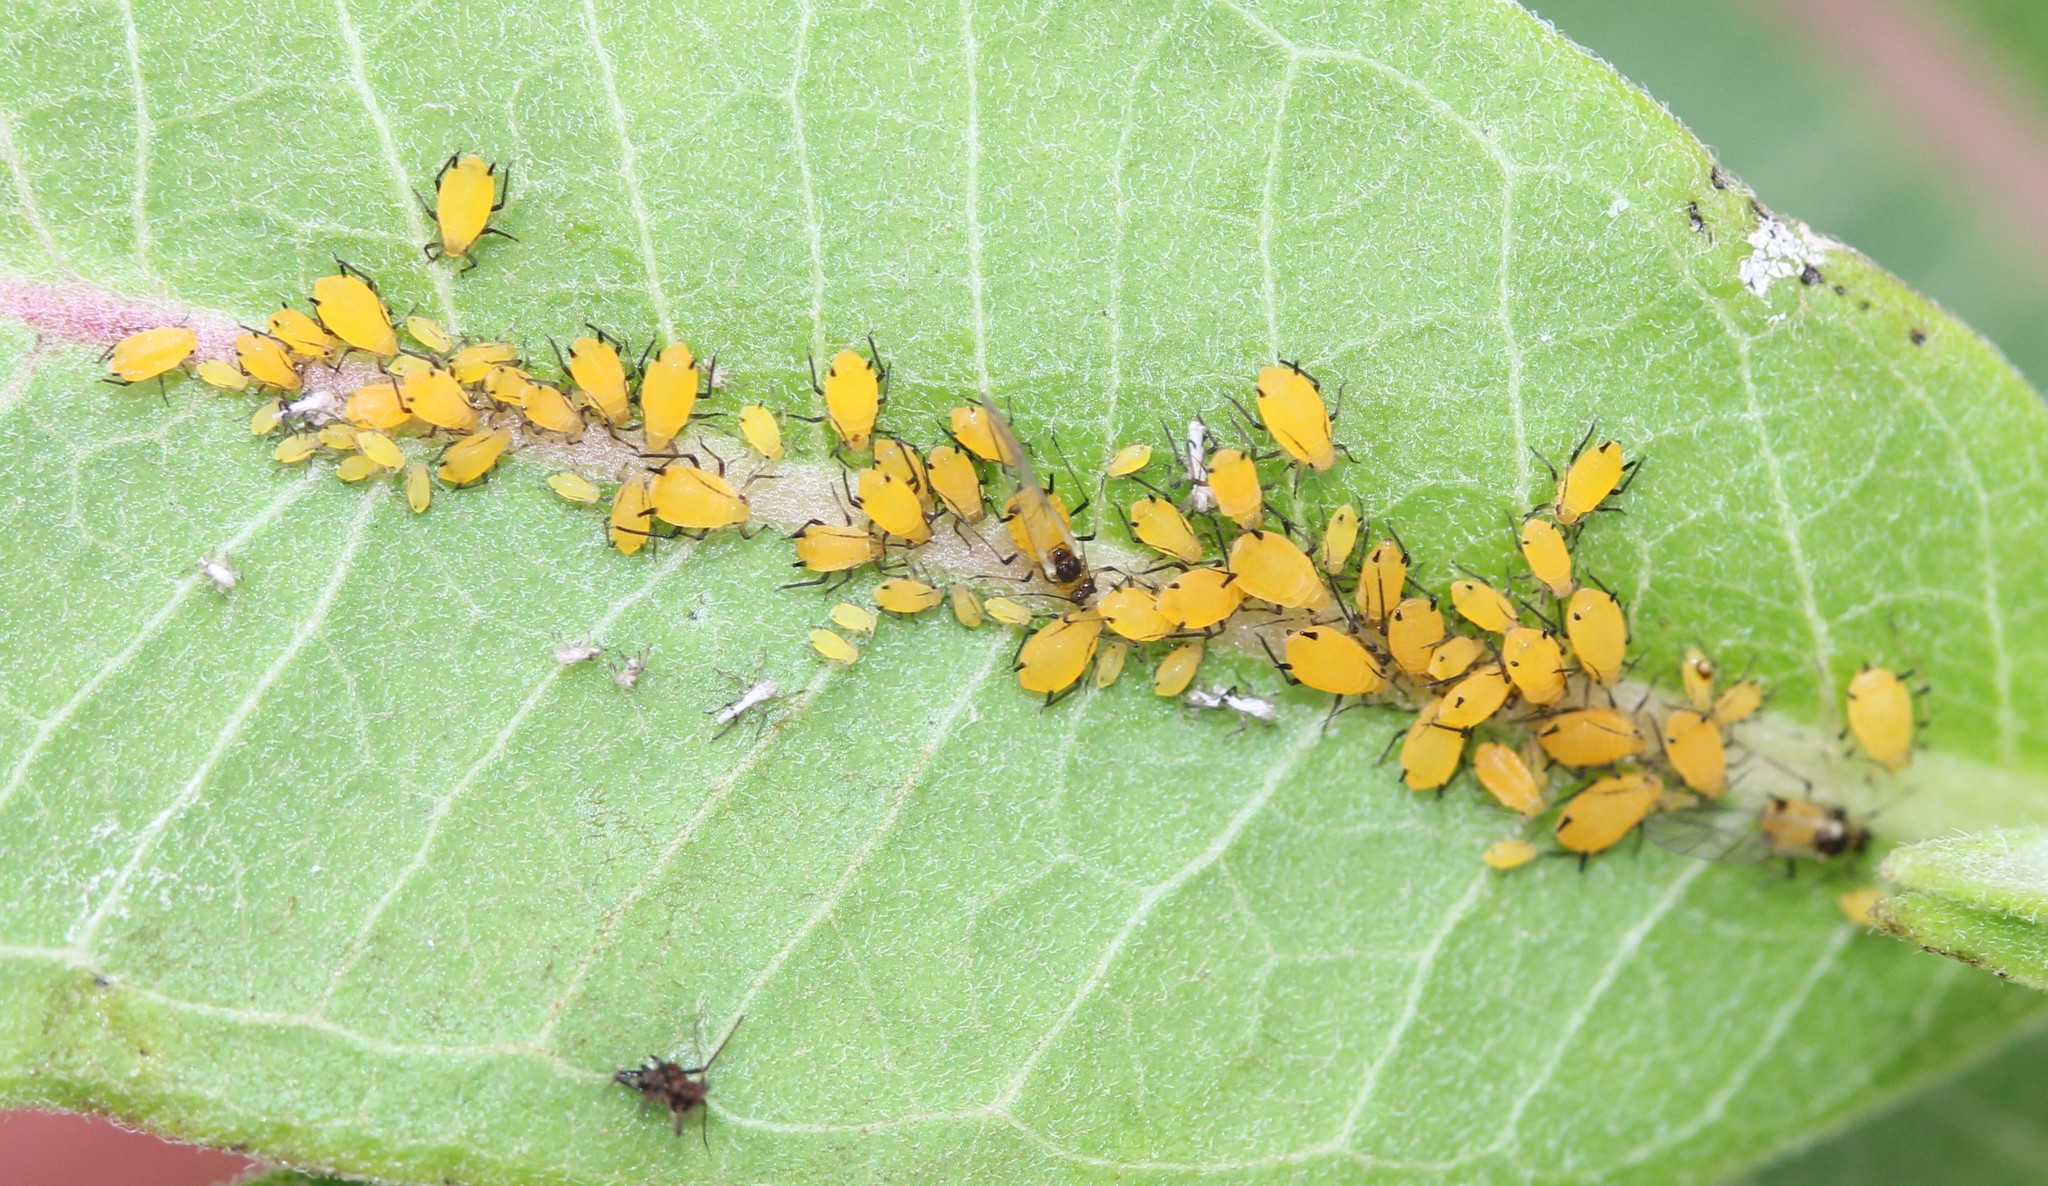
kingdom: Animalia
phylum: Arthropoda
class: Insecta
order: Hemiptera
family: Aphididae
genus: Aphis
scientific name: Aphis nerii
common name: Oleander aphid
